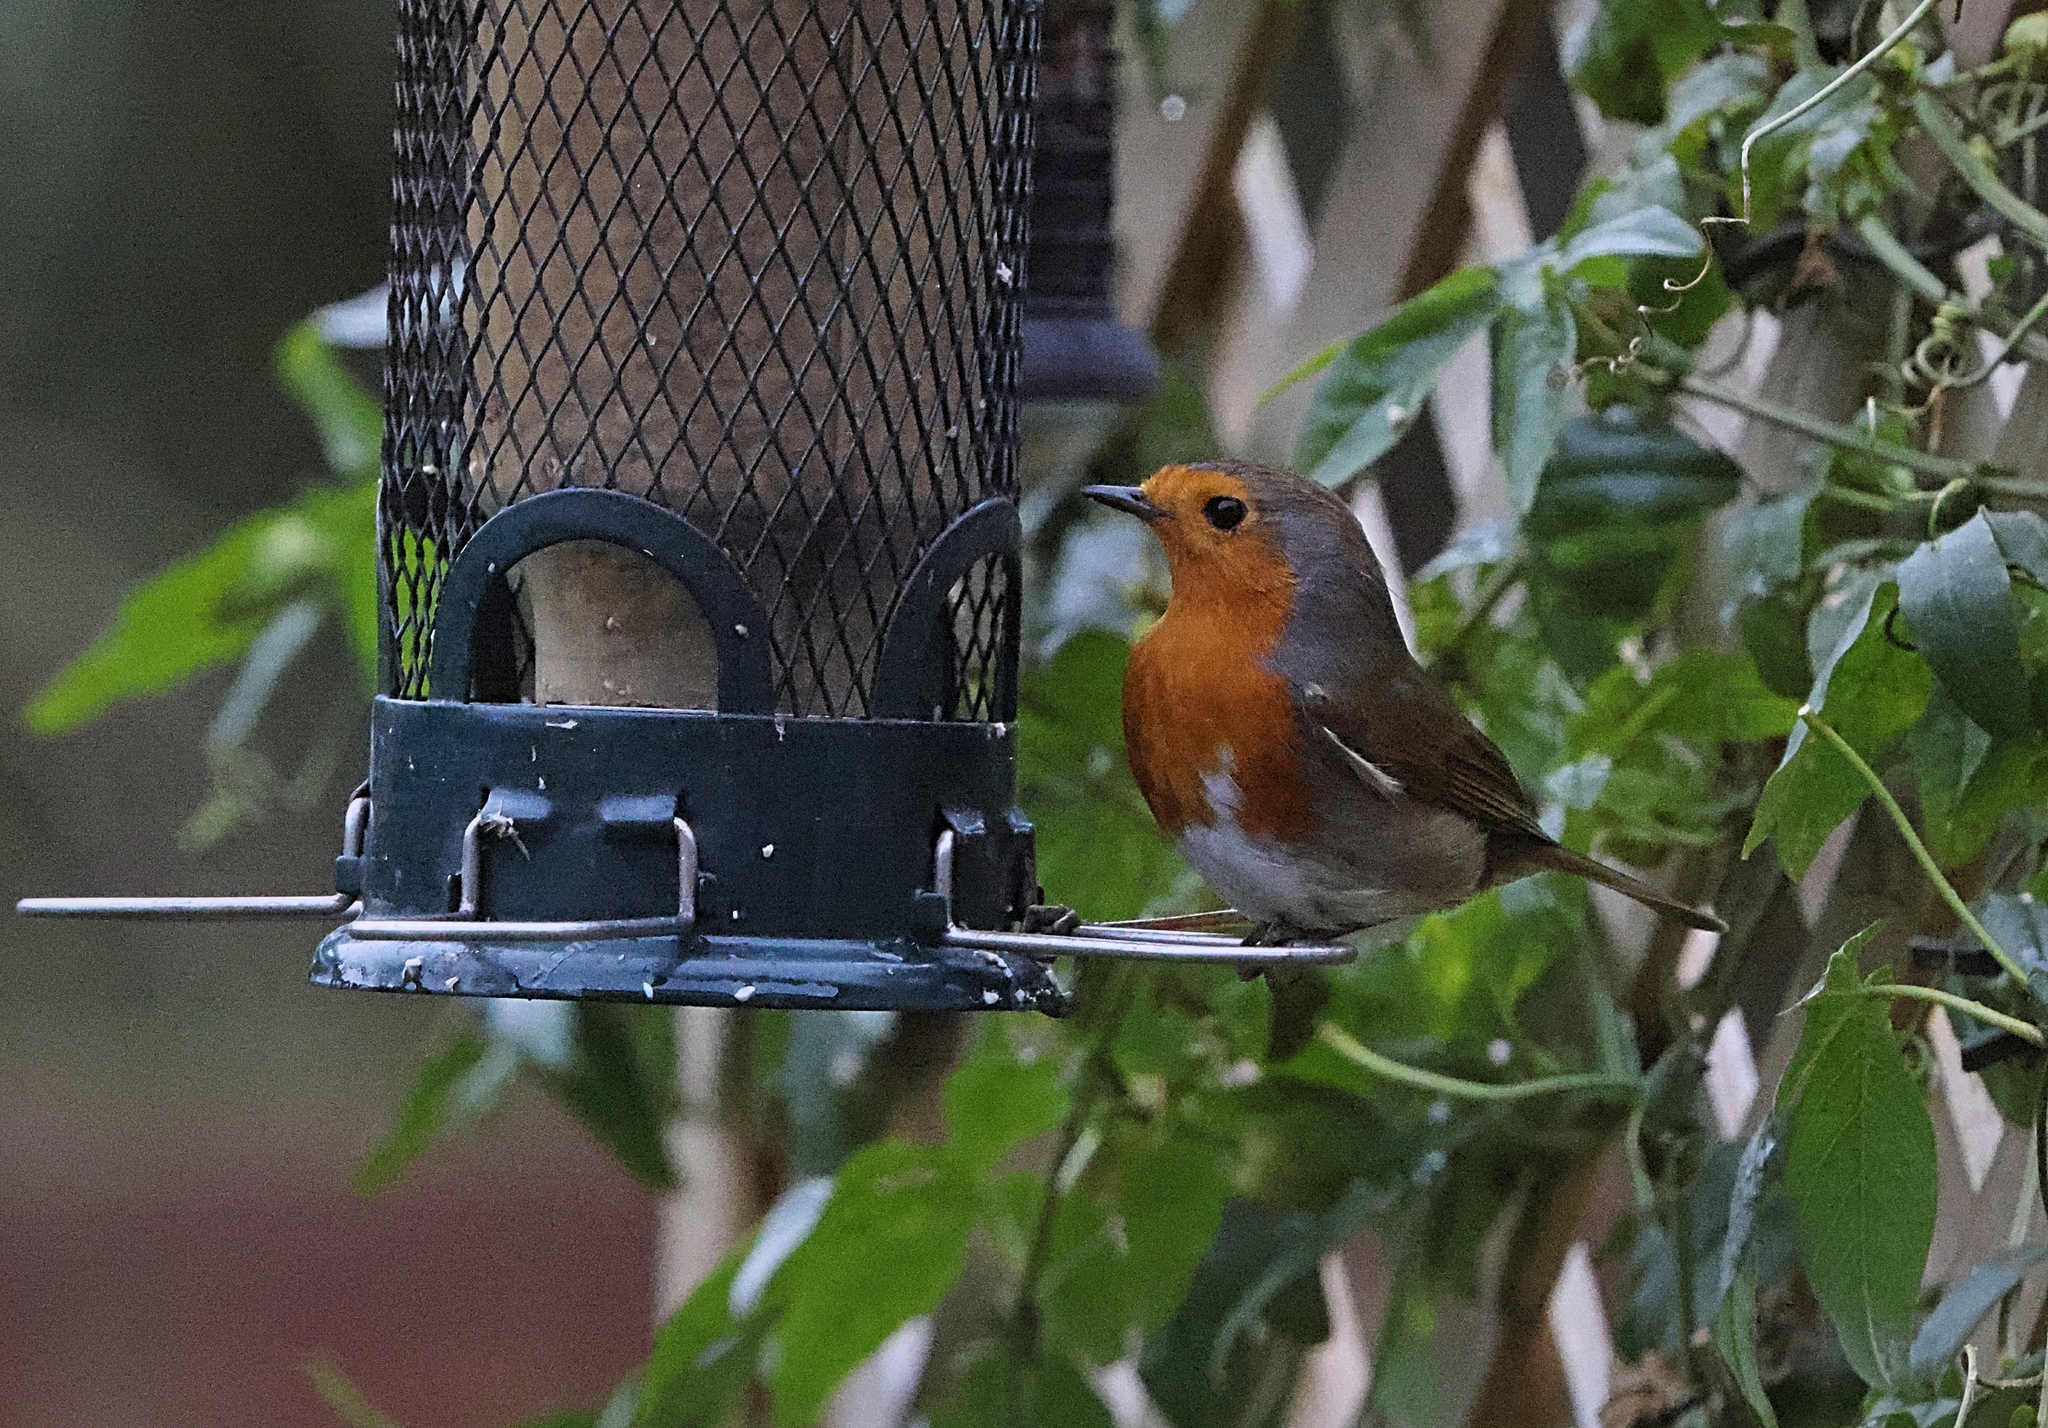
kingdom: Animalia
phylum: Chordata
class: Aves
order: Passeriformes
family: Muscicapidae
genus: Erithacus
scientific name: Erithacus rubecula
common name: European robin
